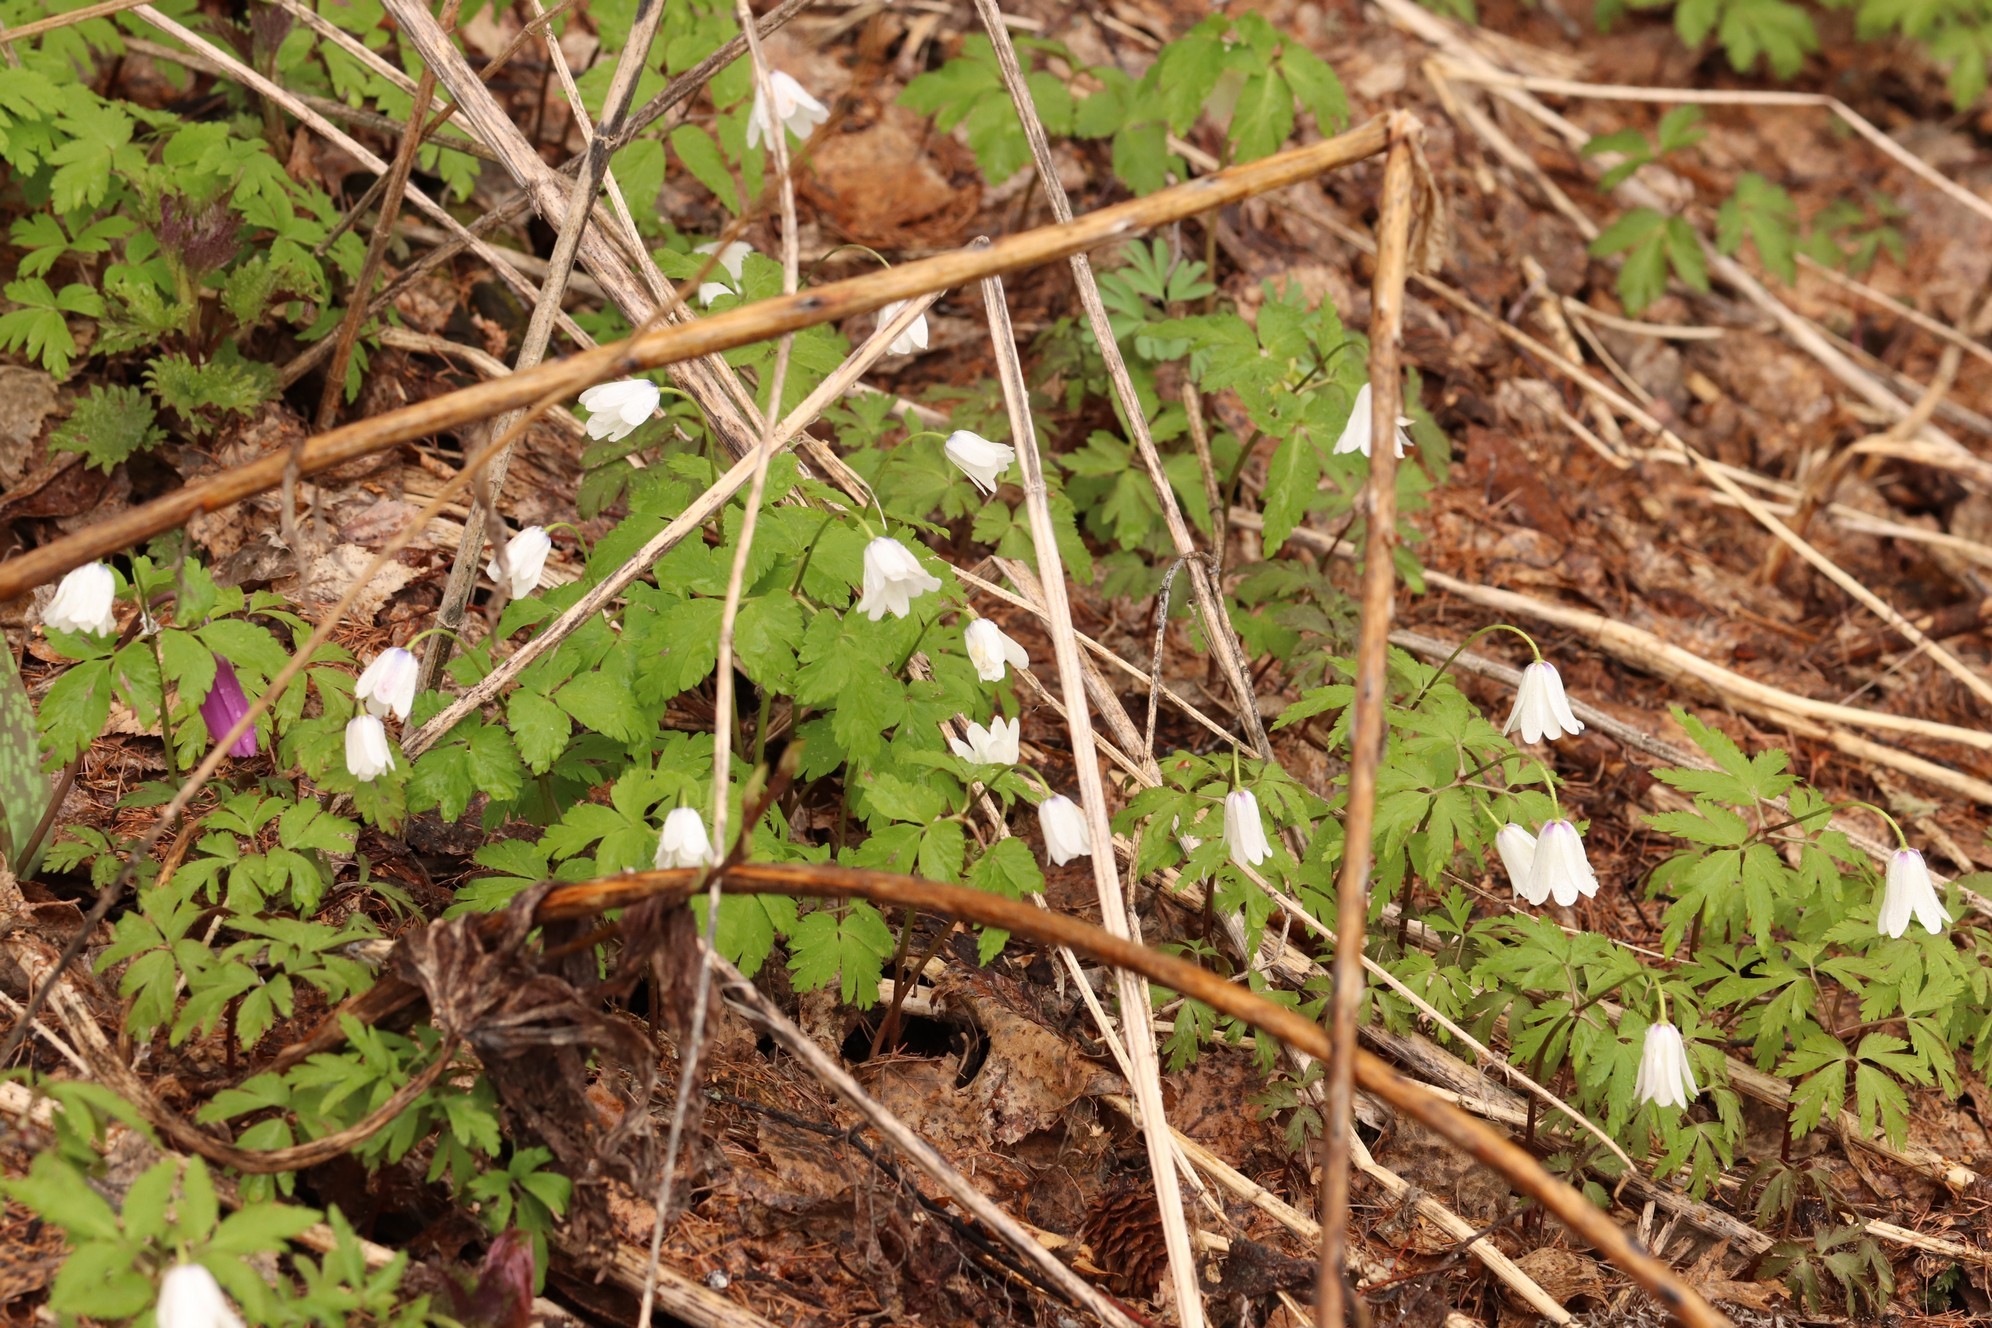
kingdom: Plantae
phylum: Tracheophyta
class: Magnoliopsida
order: Ranunculales
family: Ranunculaceae
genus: Anemone
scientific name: Anemone altaica
